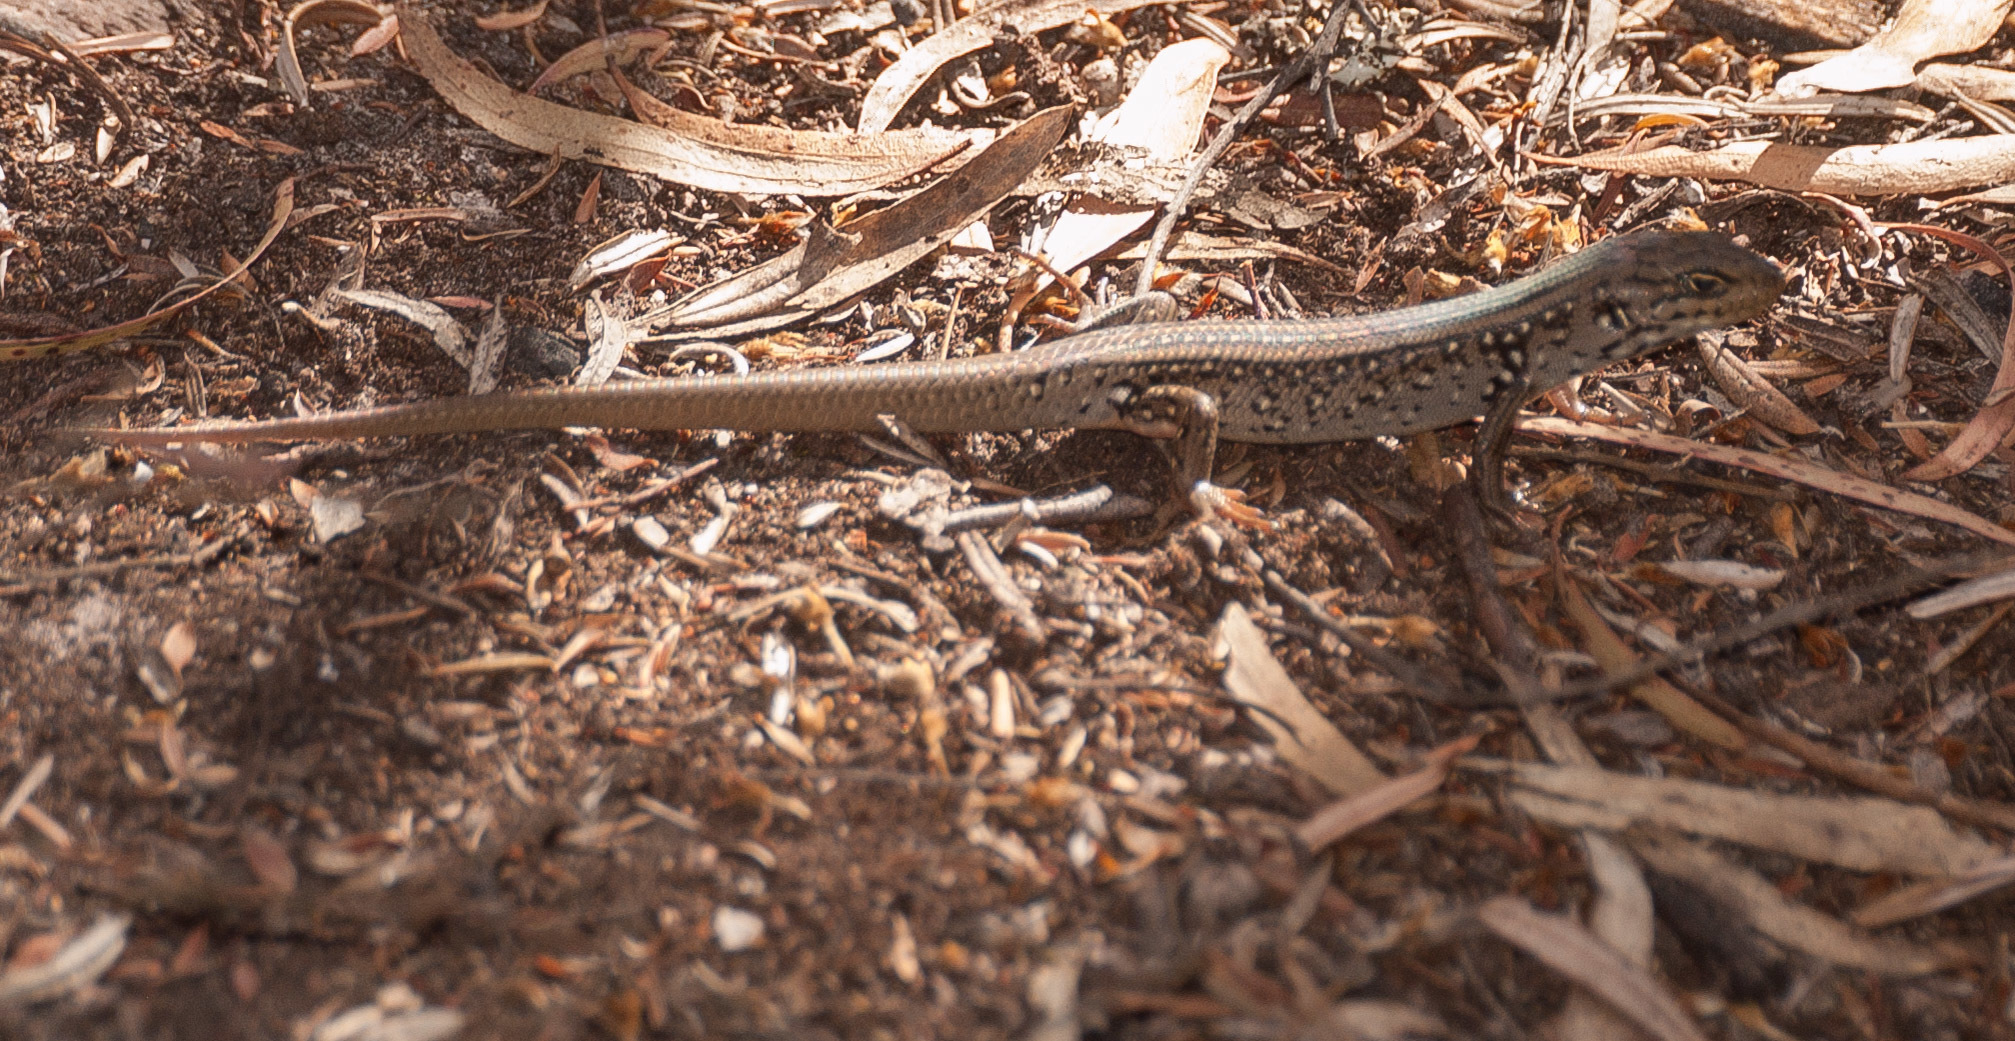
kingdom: Animalia
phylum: Chordata
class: Squamata
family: Scincidae
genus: Liopholis
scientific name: Liopholis whitii
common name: White's rock-skink
